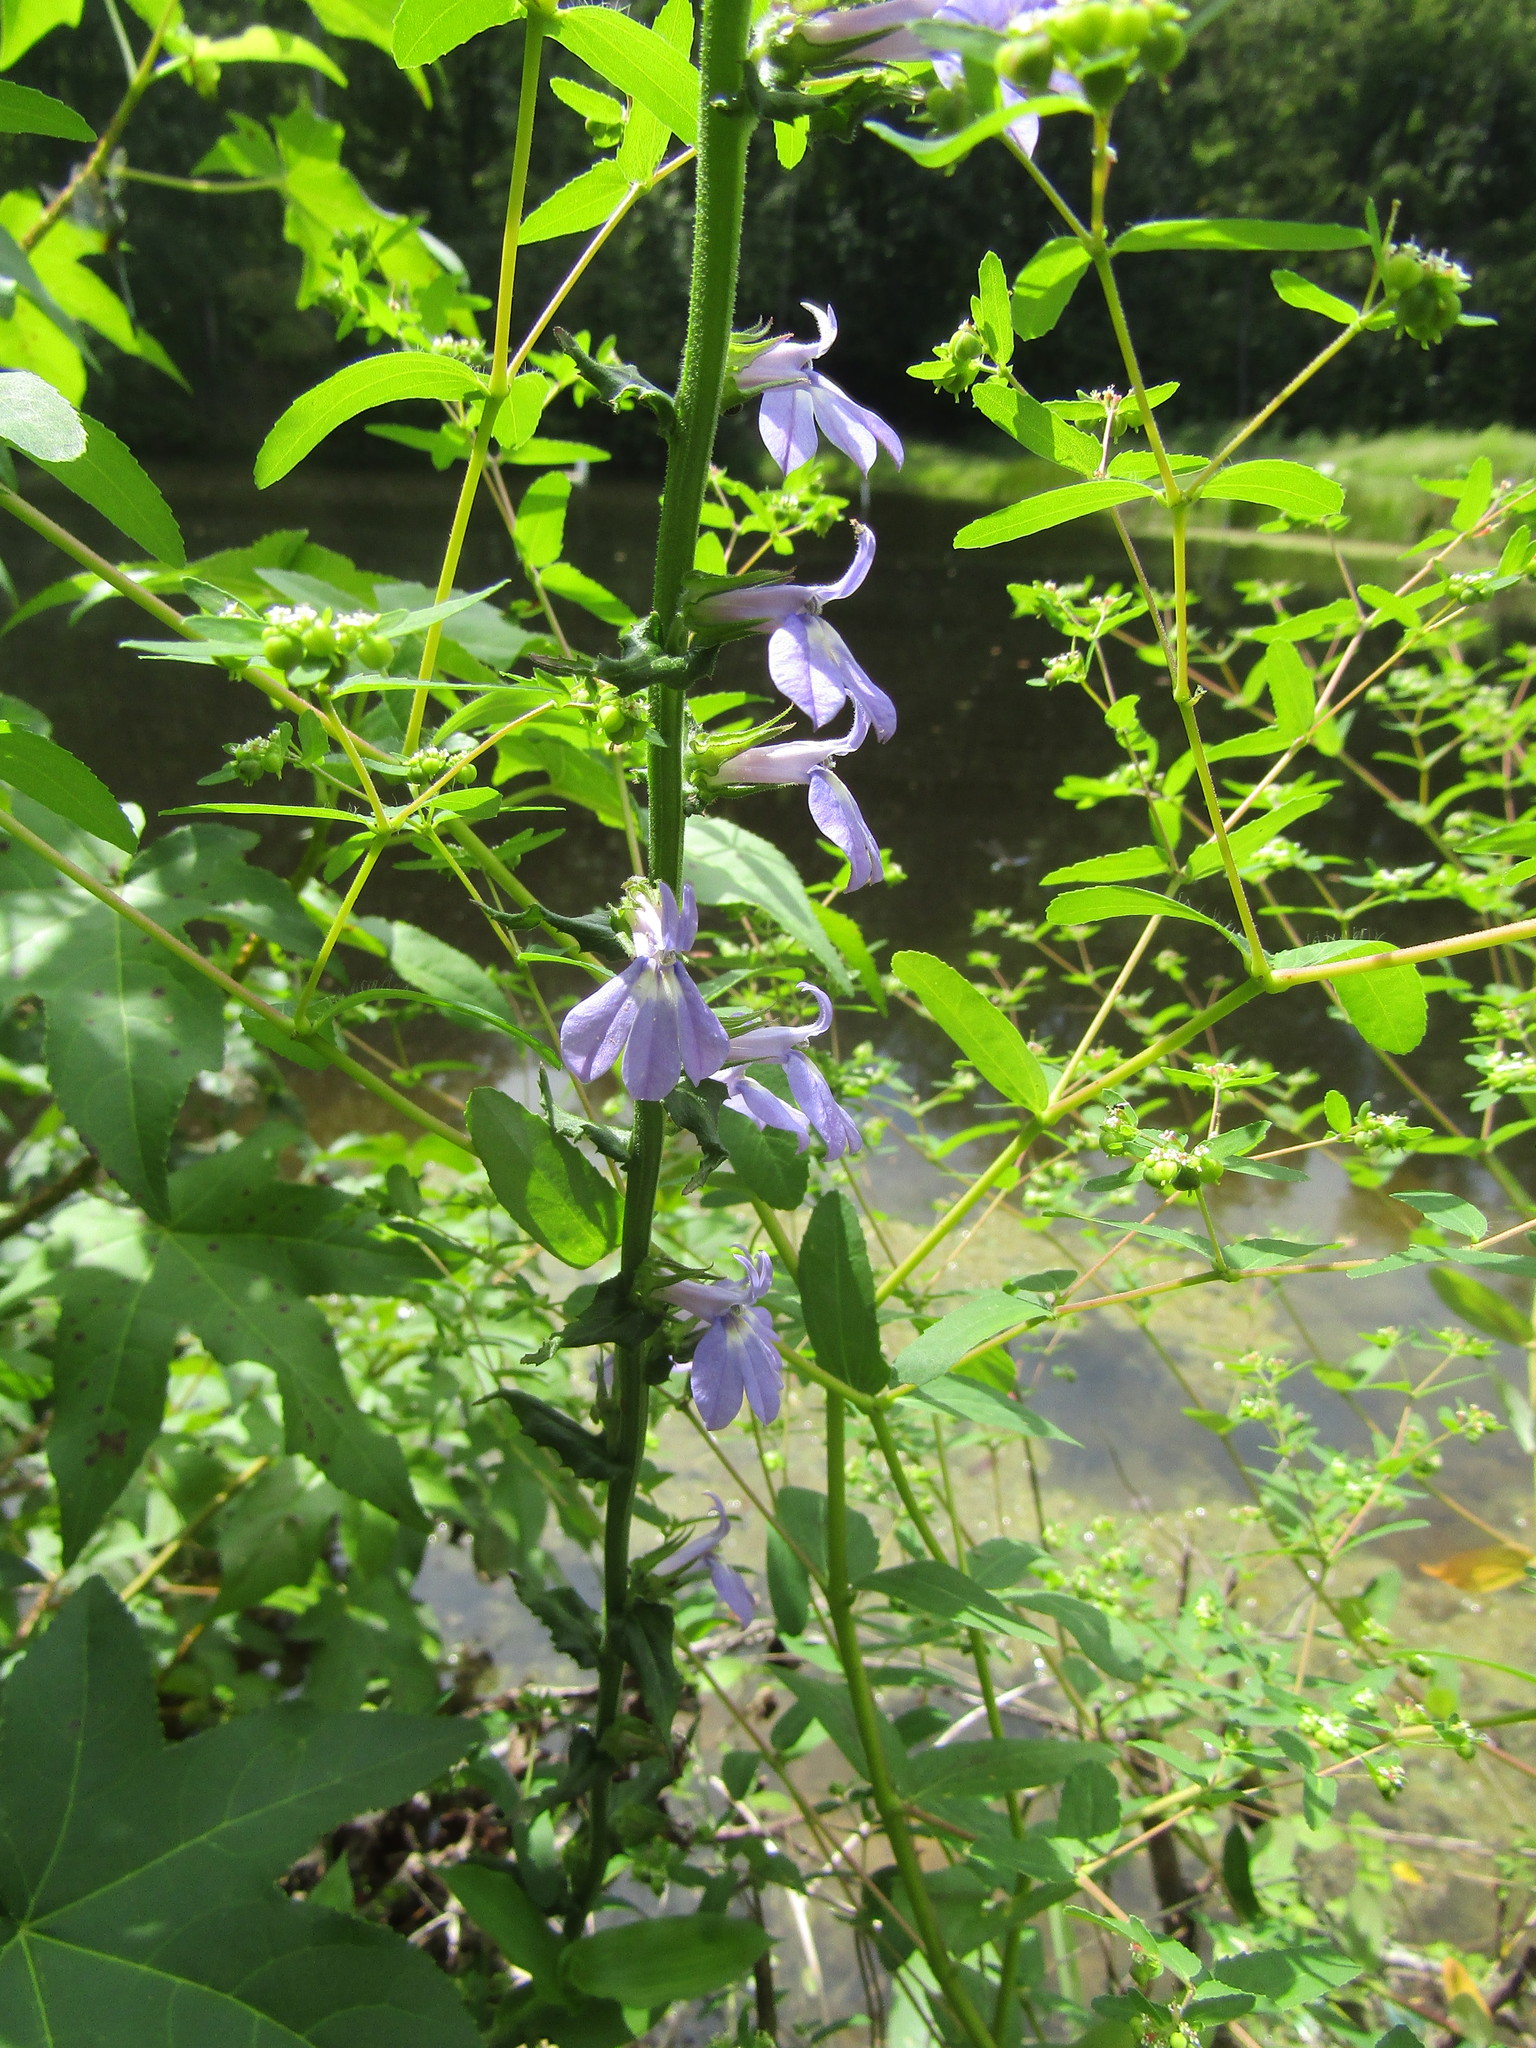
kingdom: Plantae
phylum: Tracheophyta
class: Magnoliopsida
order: Asterales
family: Campanulaceae
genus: Lobelia
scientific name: Lobelia puberula
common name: Purple dewdrop
